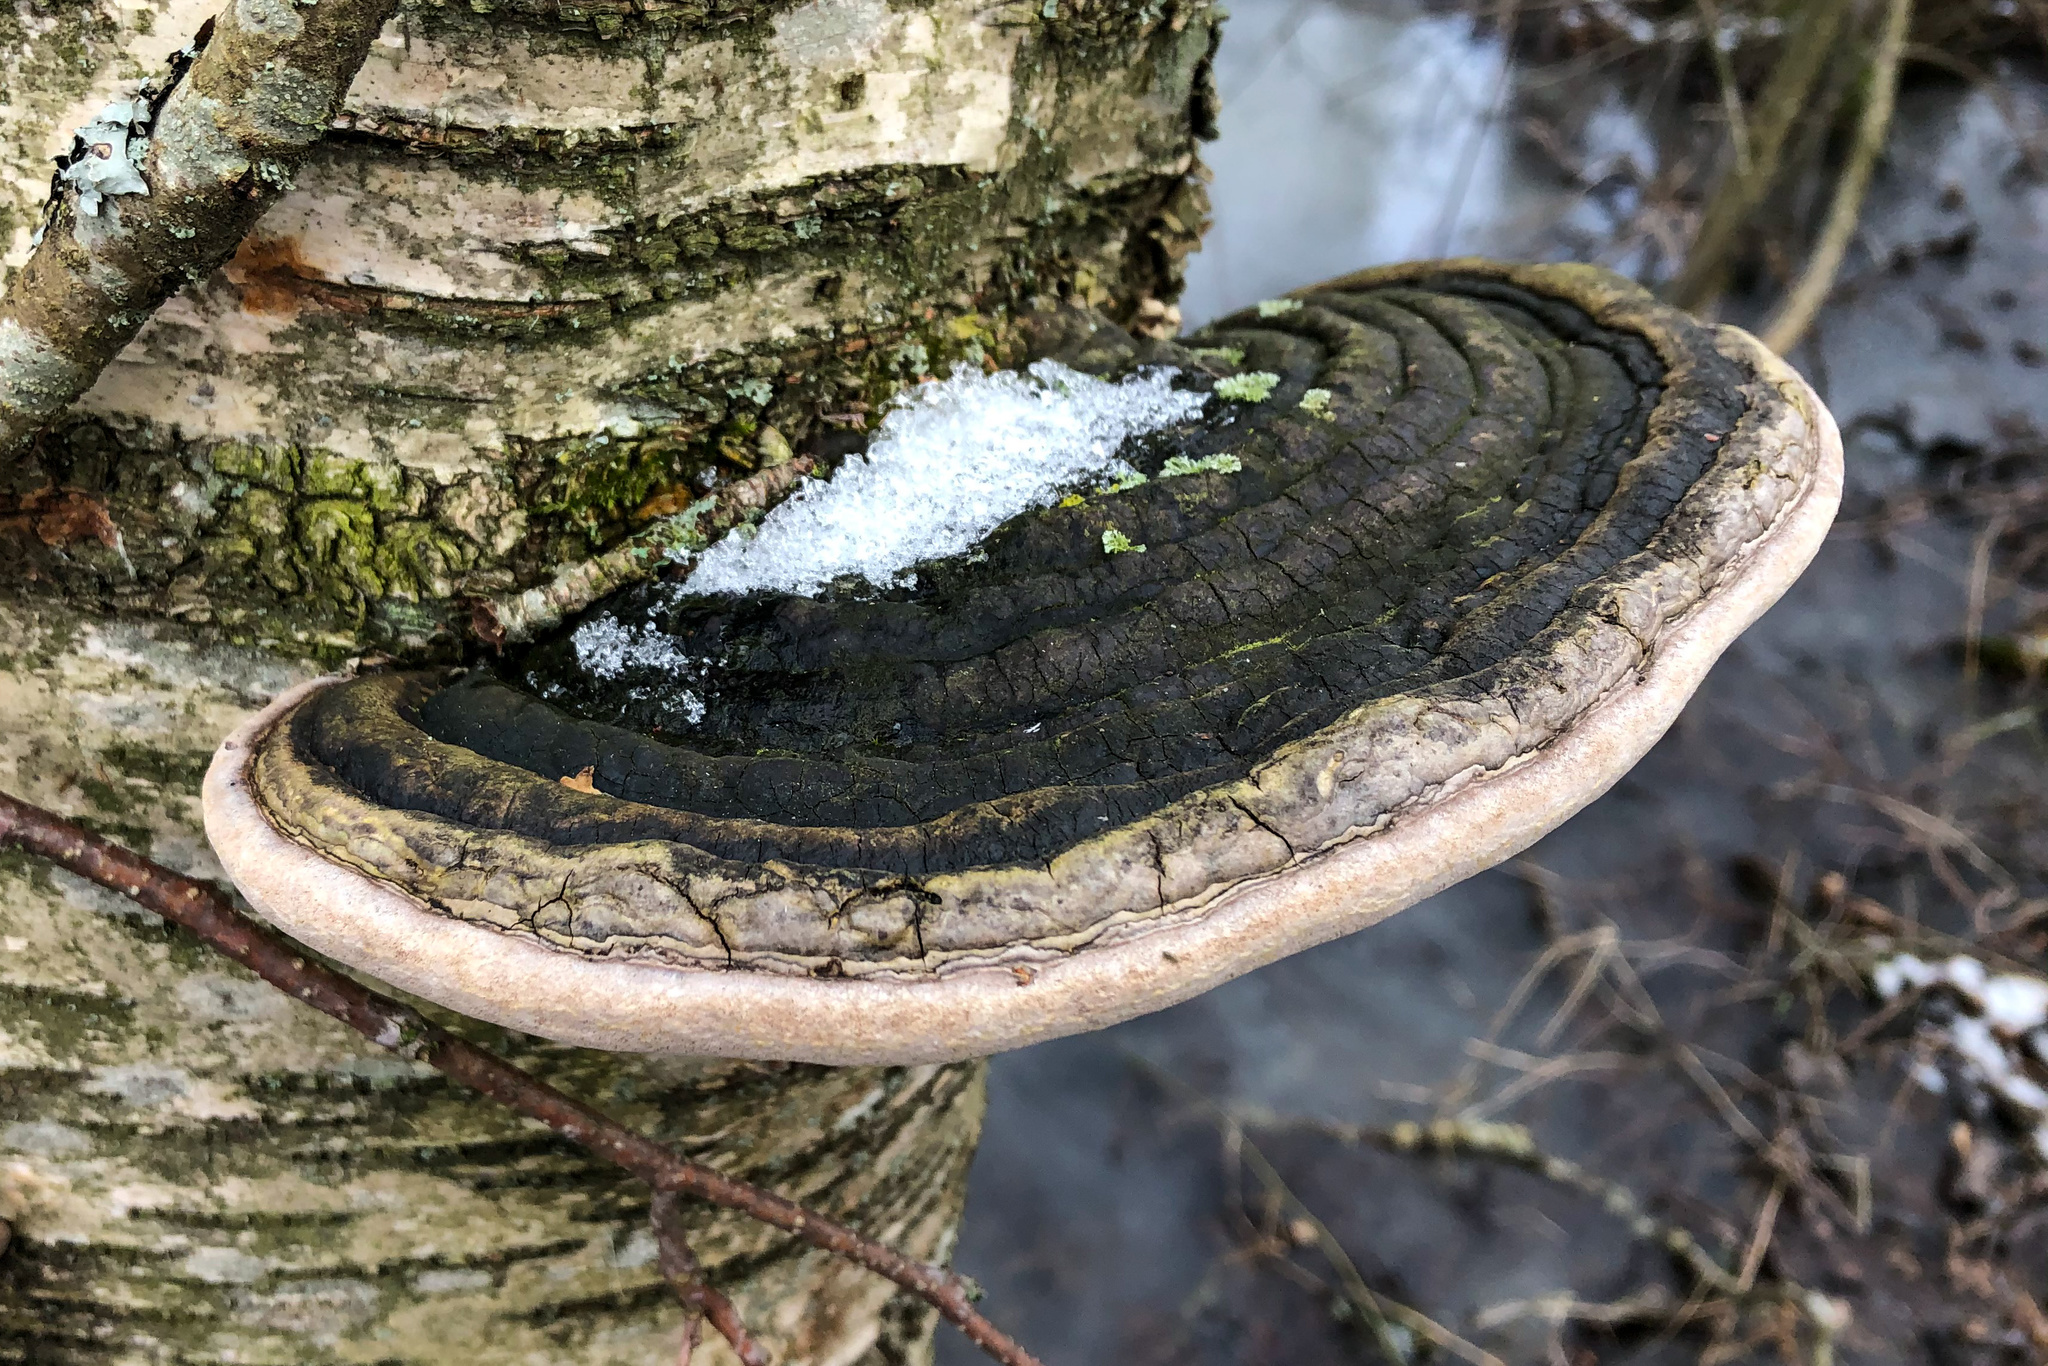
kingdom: Fungi
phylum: Basidiomycota
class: Agaricomycetes
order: Hymenochaetales
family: Hymenochaetaceae
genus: Phellinus
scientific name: Phellinus igniarius
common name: Willow bracket
